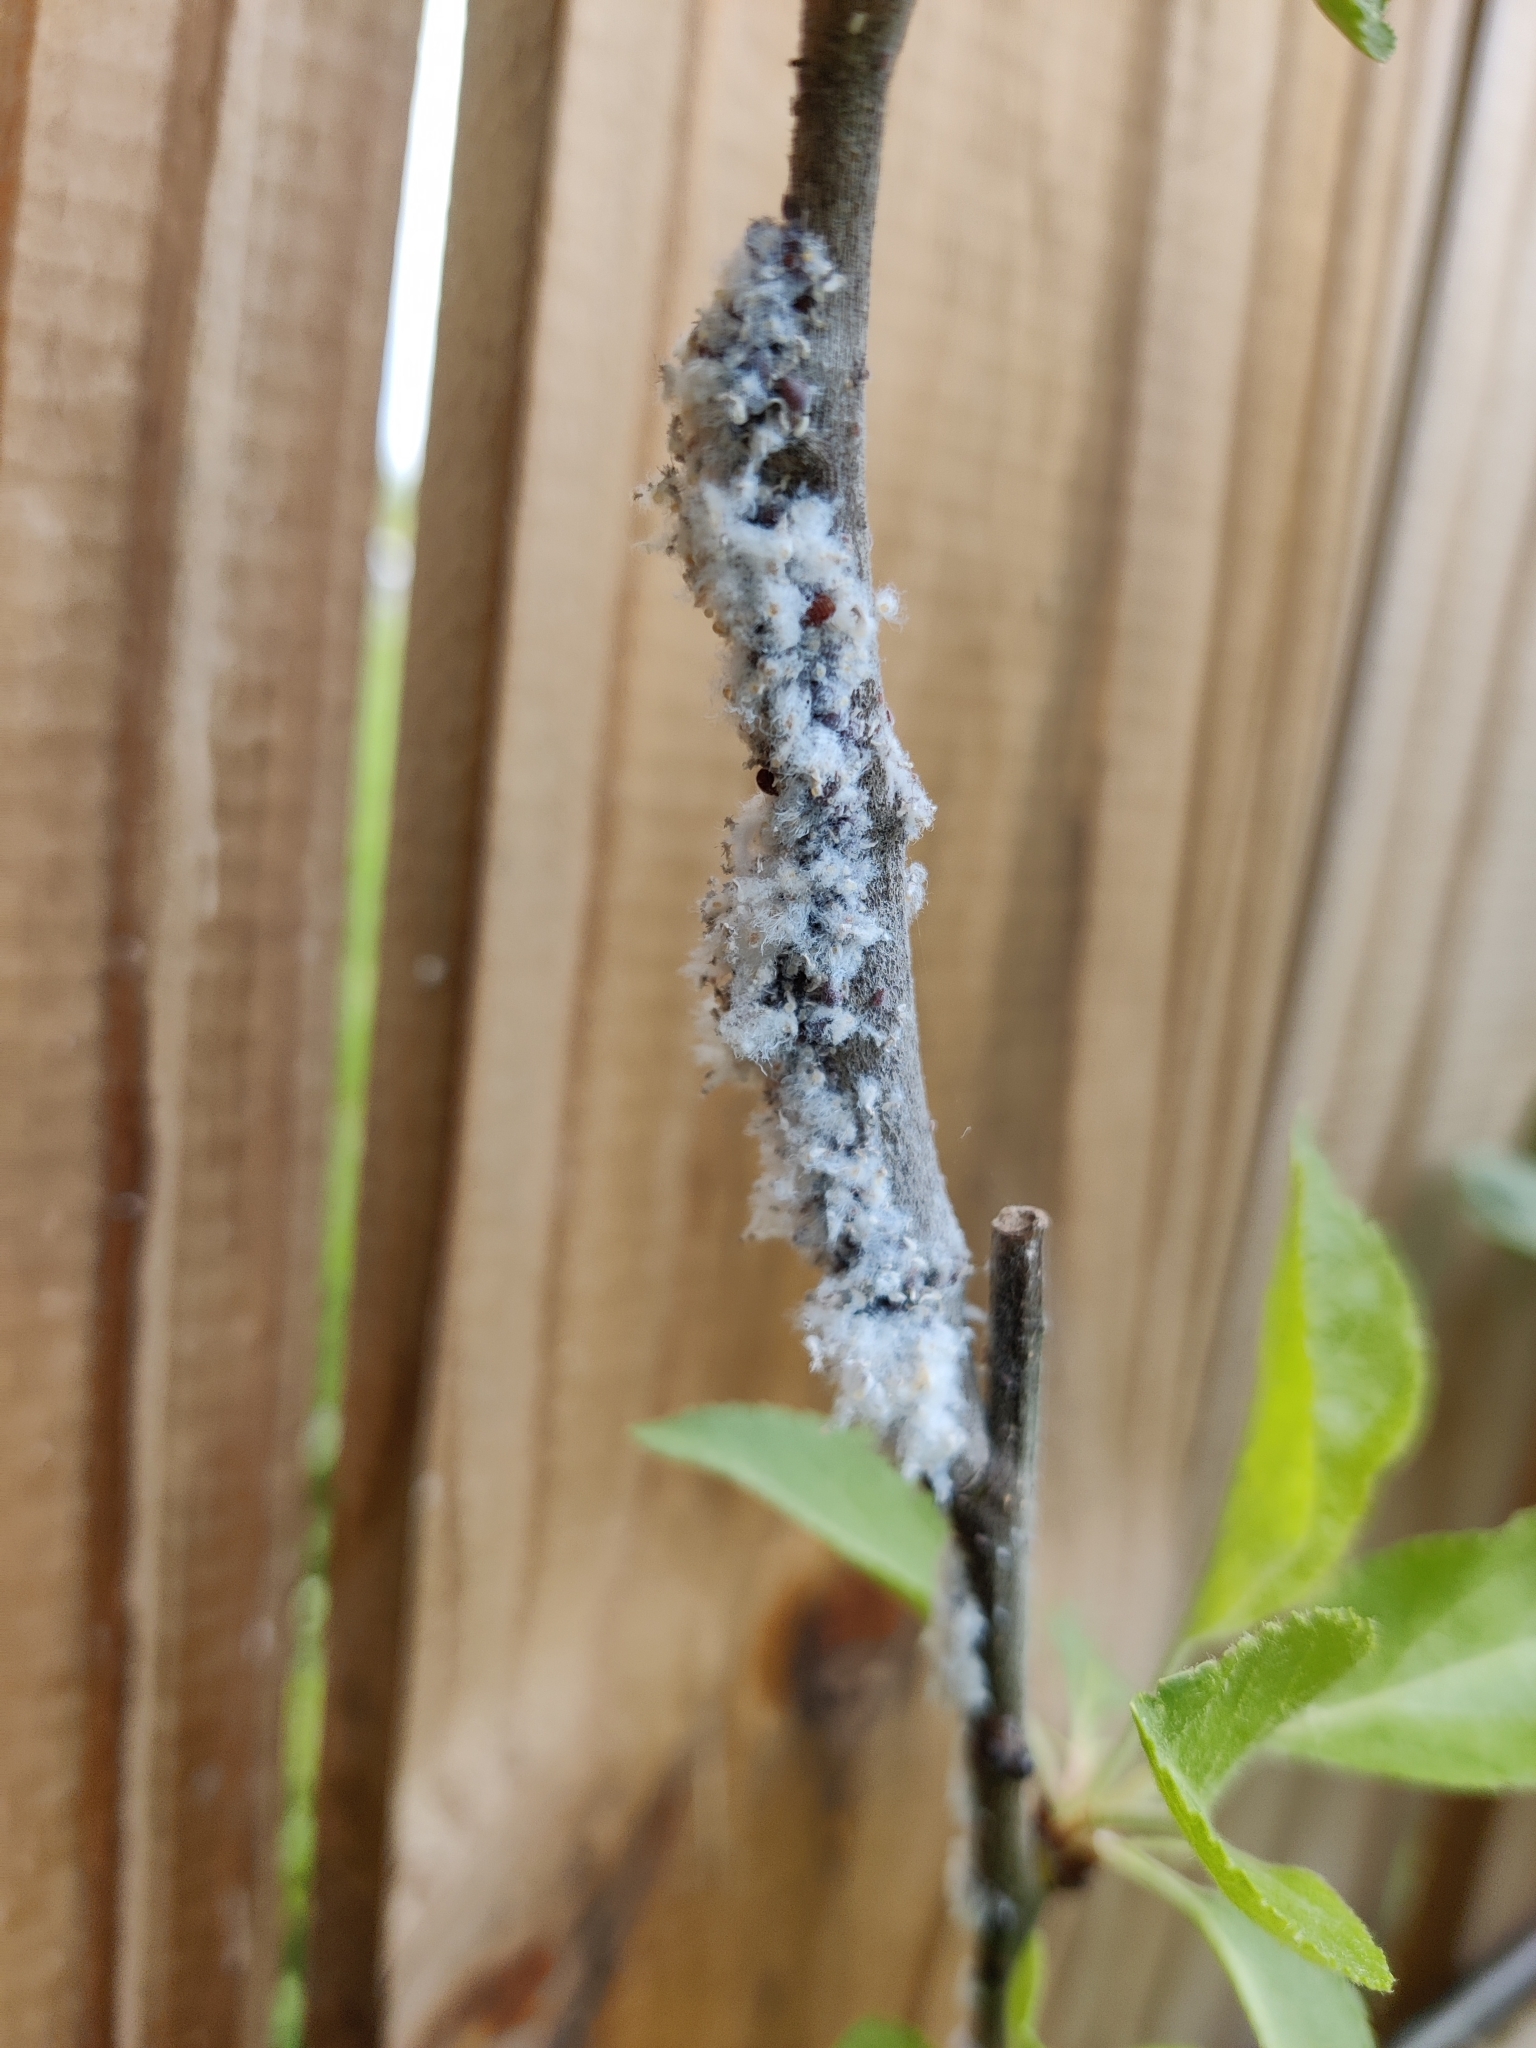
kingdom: Animalia
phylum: Arthropoda
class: Insecta
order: Hemiptera
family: Aphididae
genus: Eriosoma
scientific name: Eriosoma lanigerum
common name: Woolly apple aphid
